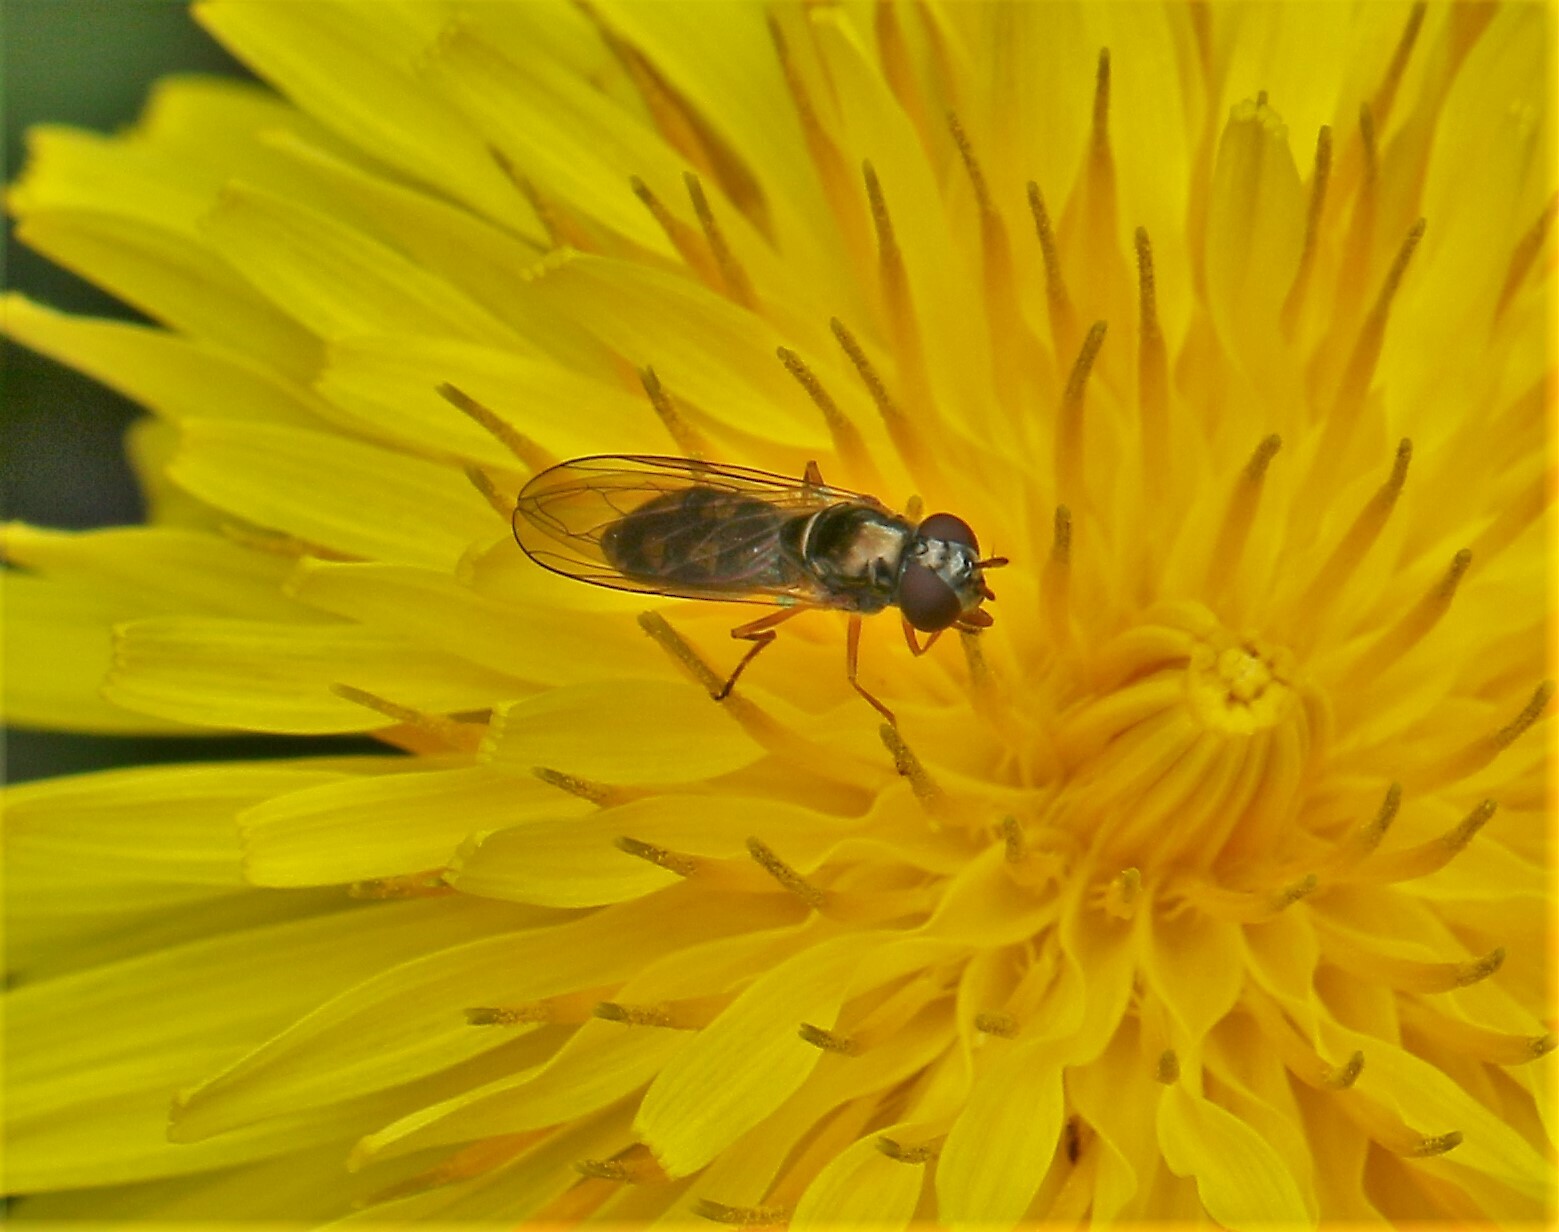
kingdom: Animalia
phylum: Arthropoda
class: Insecta
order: Diptera
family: Syrphidae
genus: Melanostoma
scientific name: Melanostoma mellina
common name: Hover fly
